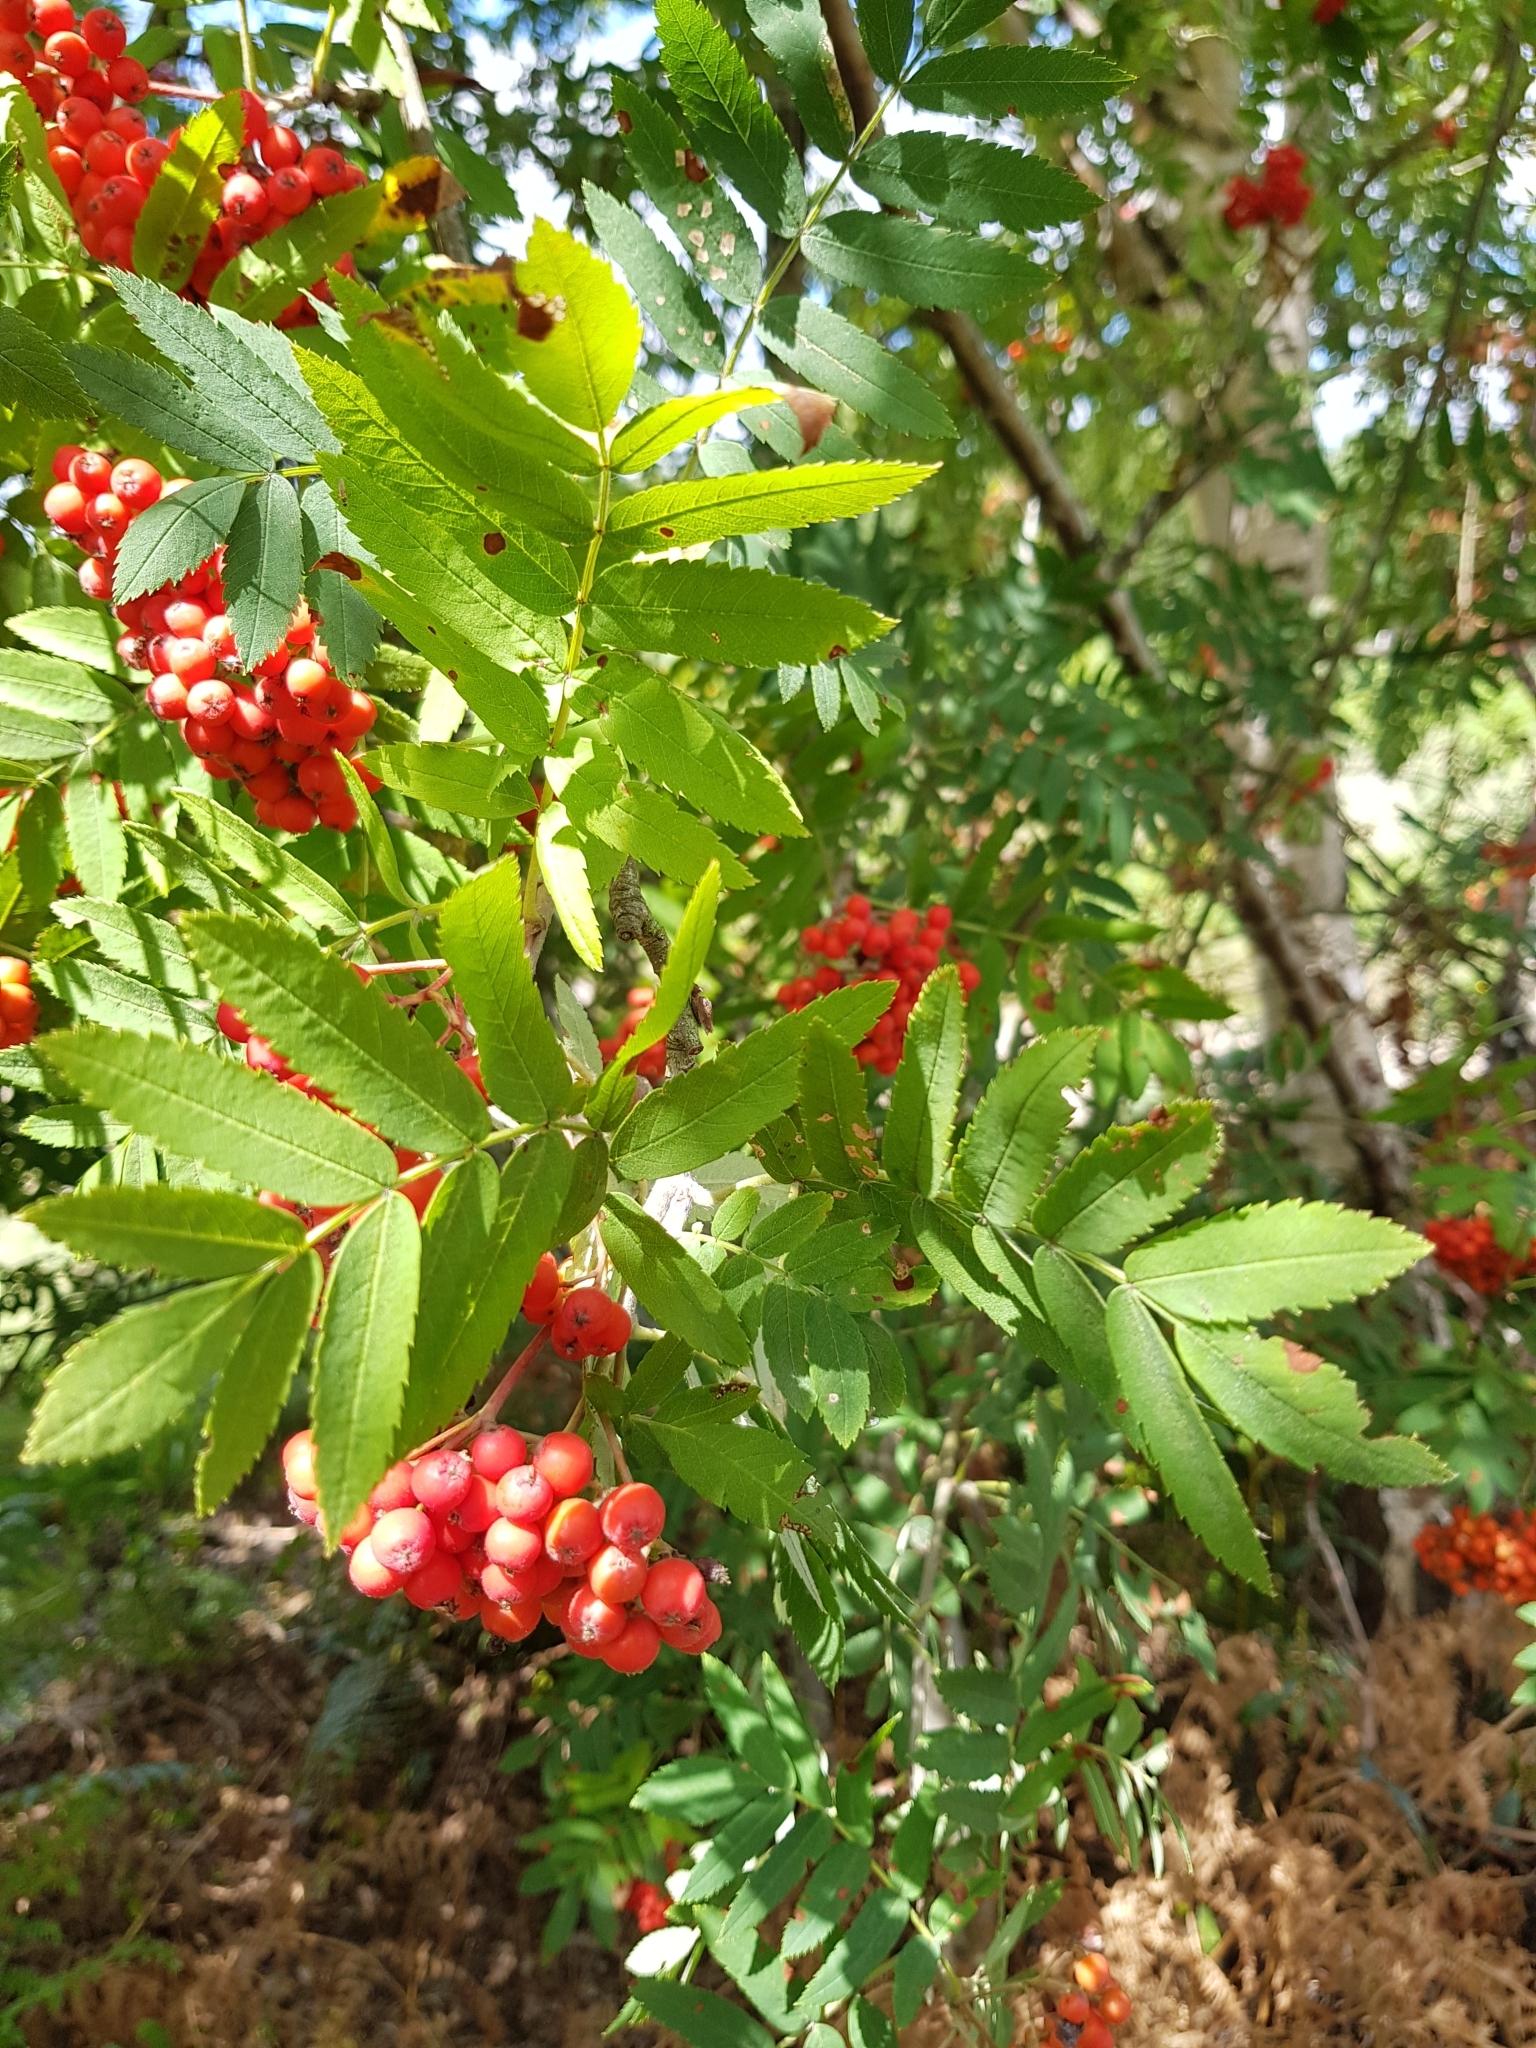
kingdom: Plantae
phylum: Tracheophyta
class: Magnoliopsida
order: Rosales
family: Rosaceae
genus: Sorbus
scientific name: Sorbus aucuparia
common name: Rowan
